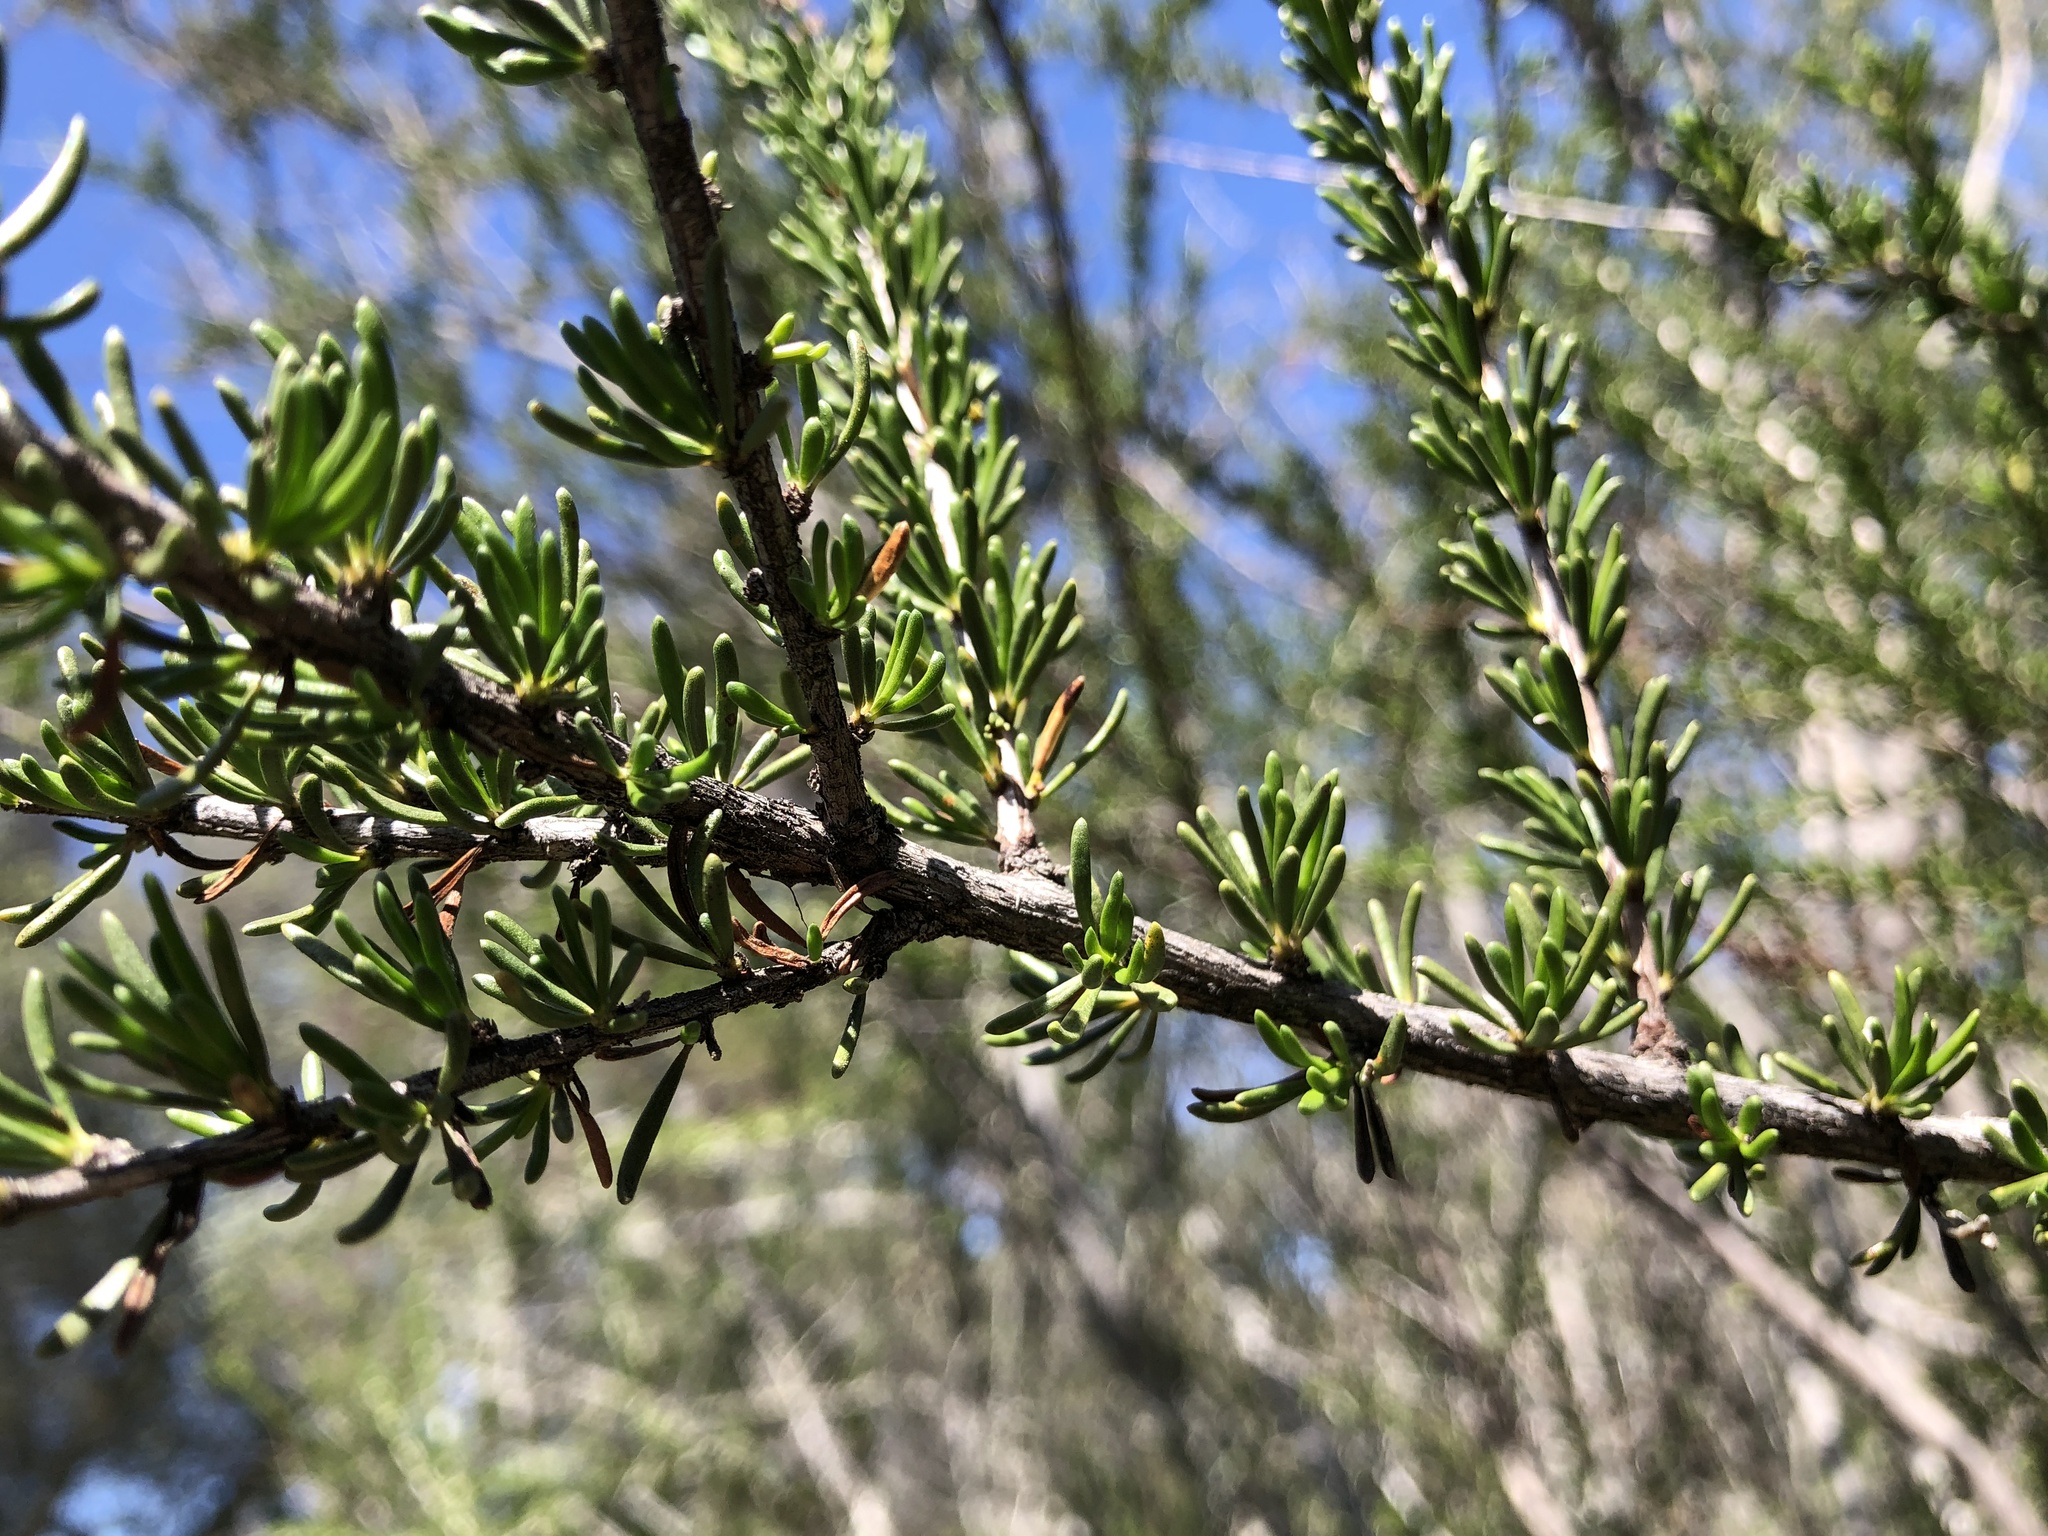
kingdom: Plantae
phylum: Tracheophyta
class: Magnoliopsida
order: Rosales
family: Rosaceae
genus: Adenostoma
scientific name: Adenostoma fasciculatum
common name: Chamise
